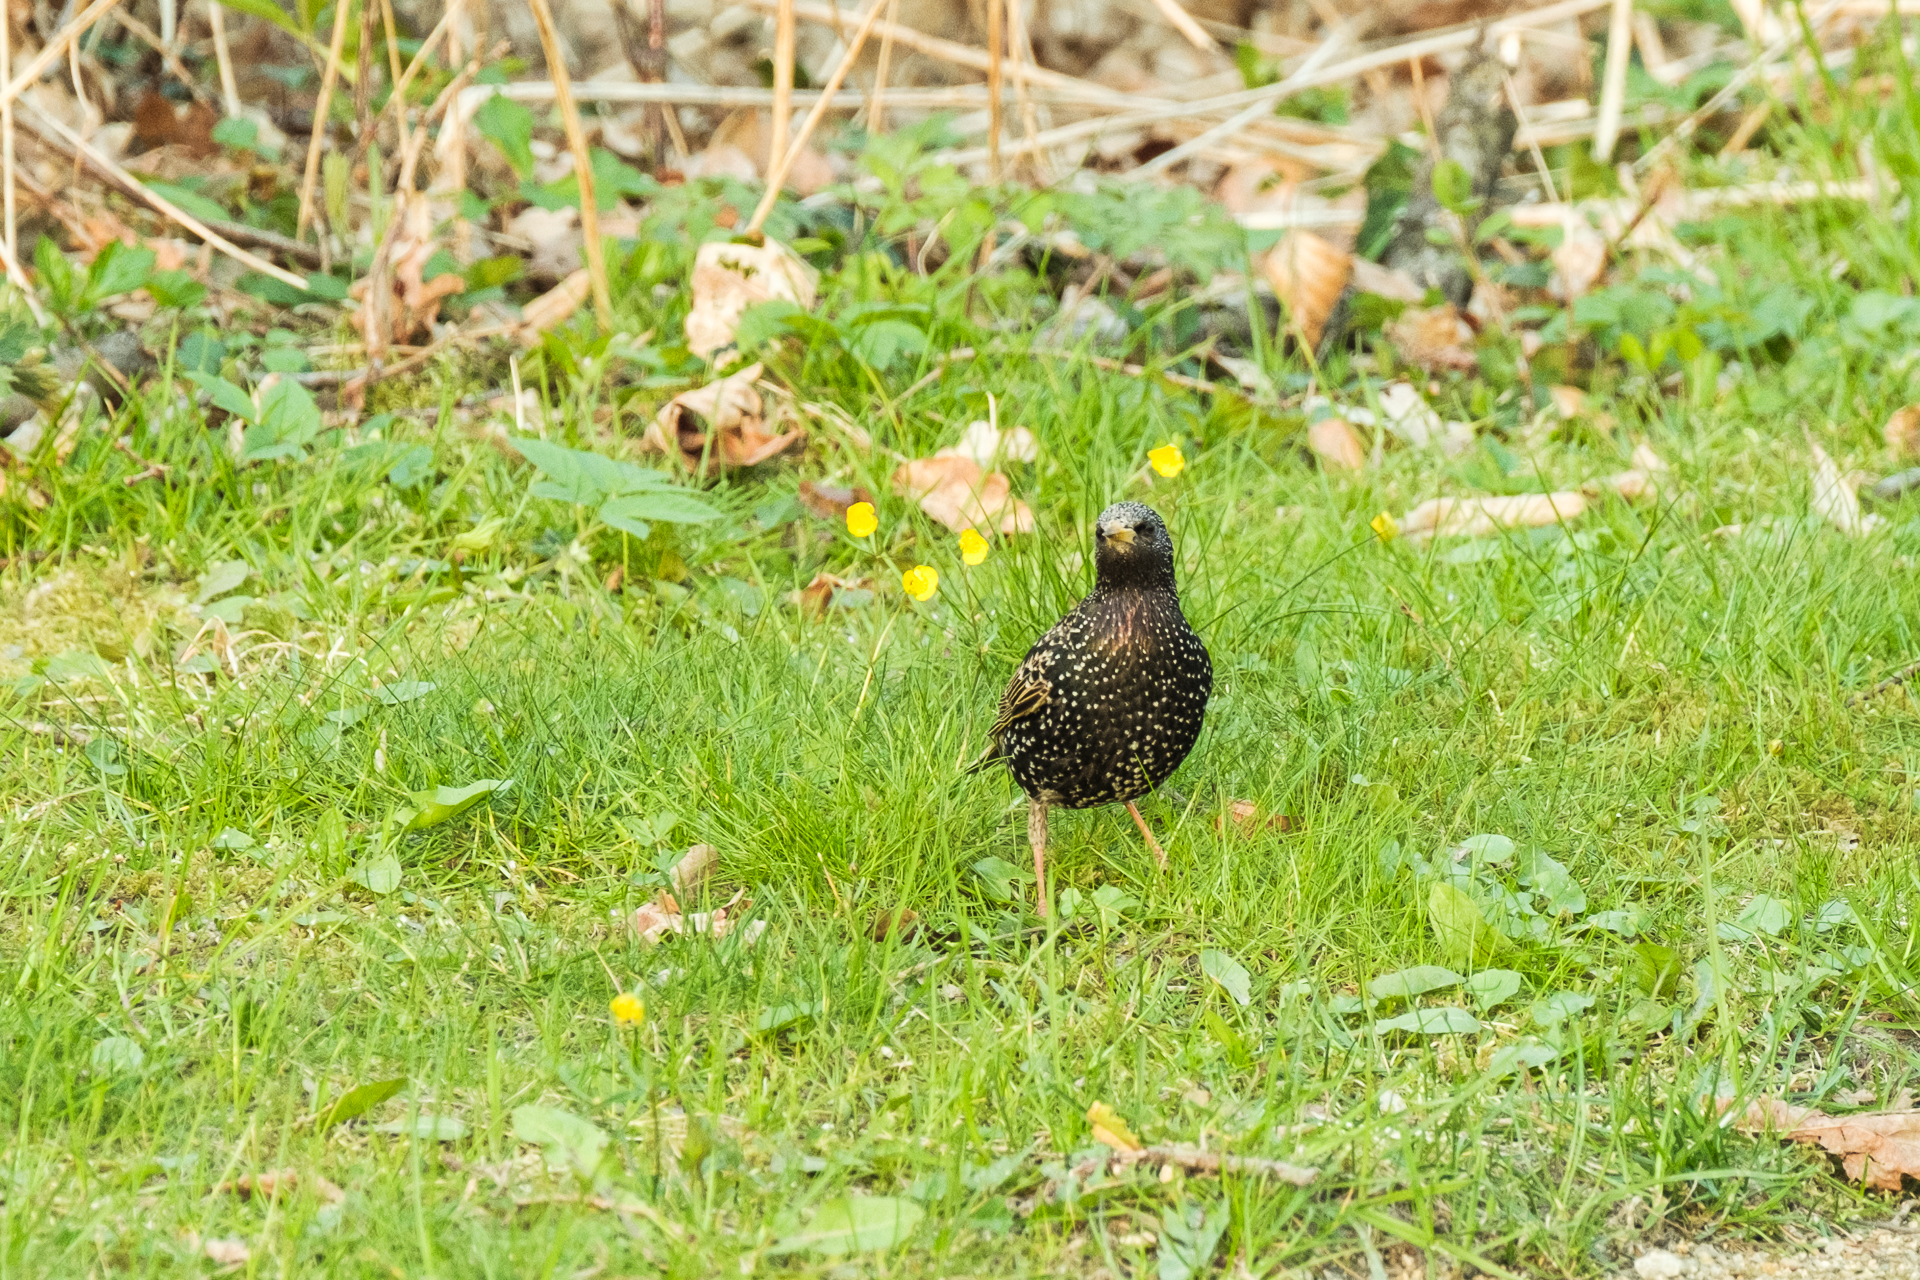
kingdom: Animalia
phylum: Chordata
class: Aves
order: Passeriformes
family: Sturnidae
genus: Sturnus
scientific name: Sturnus vulgaris
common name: Common starling
